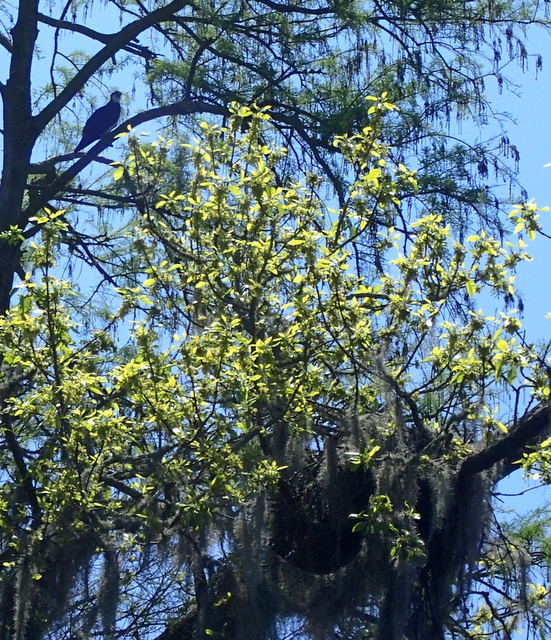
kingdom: Animalia
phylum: Chordata
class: Aves
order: Accipitriformes
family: Pandionidae
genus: Pandion
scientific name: Pandion haliaetus
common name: Osprey
